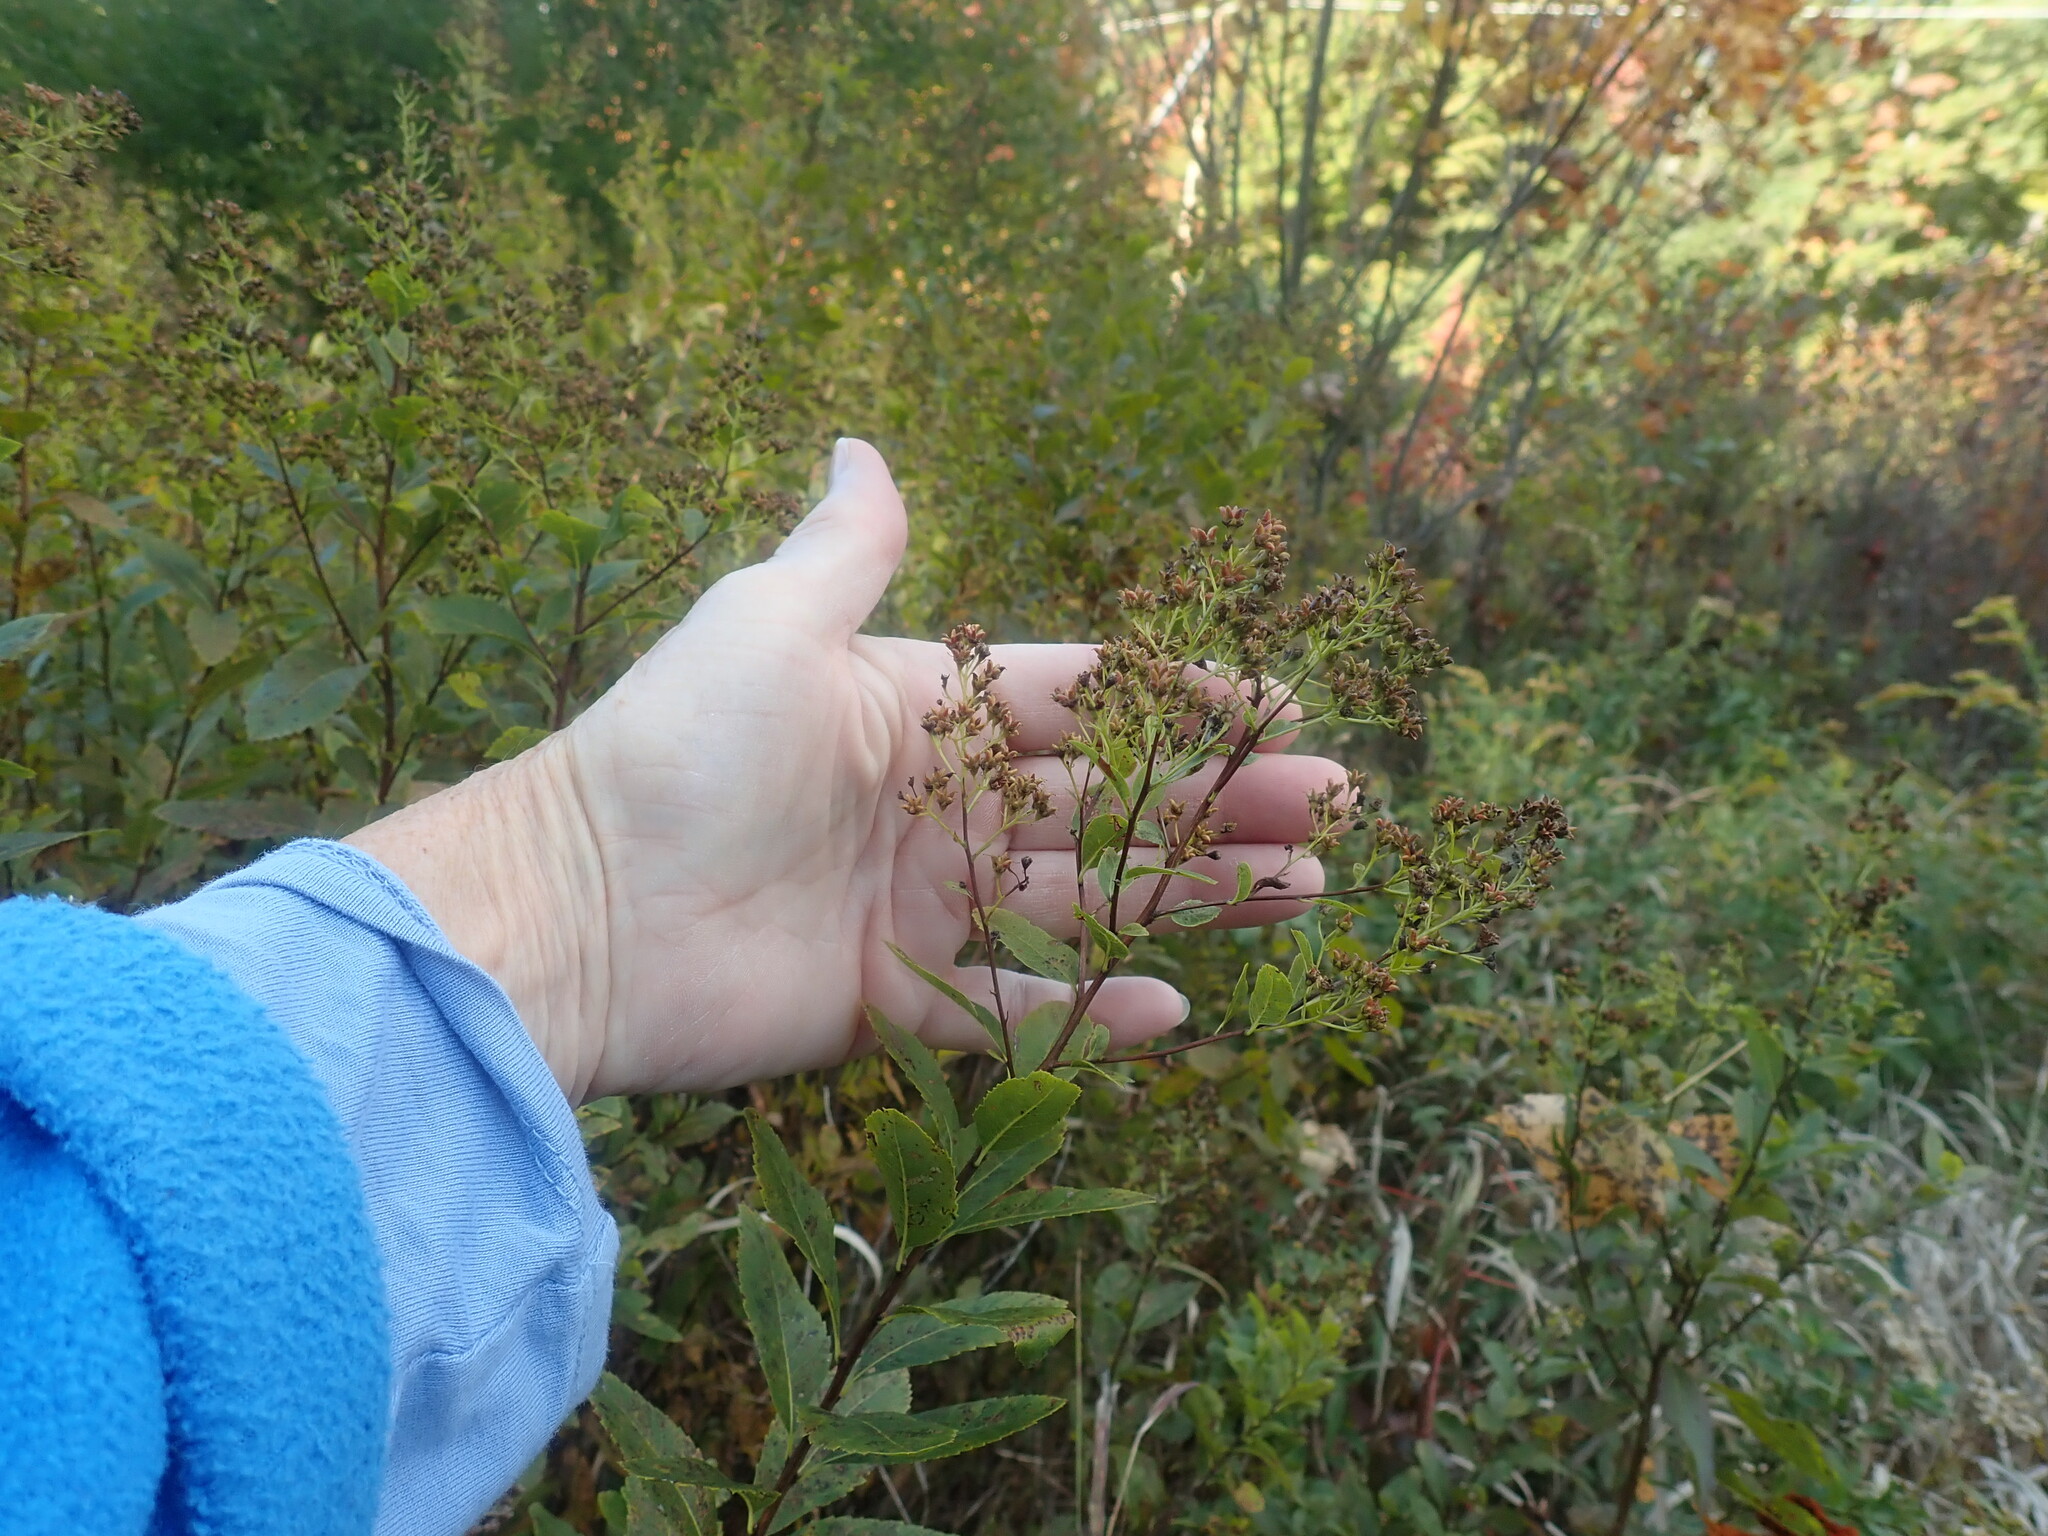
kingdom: Plantae
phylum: Tracheophyta
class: Magnoliopsida
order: Rosales
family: Rosaceae
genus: Spiraea
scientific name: Spiraea alba
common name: Pale bridewort
